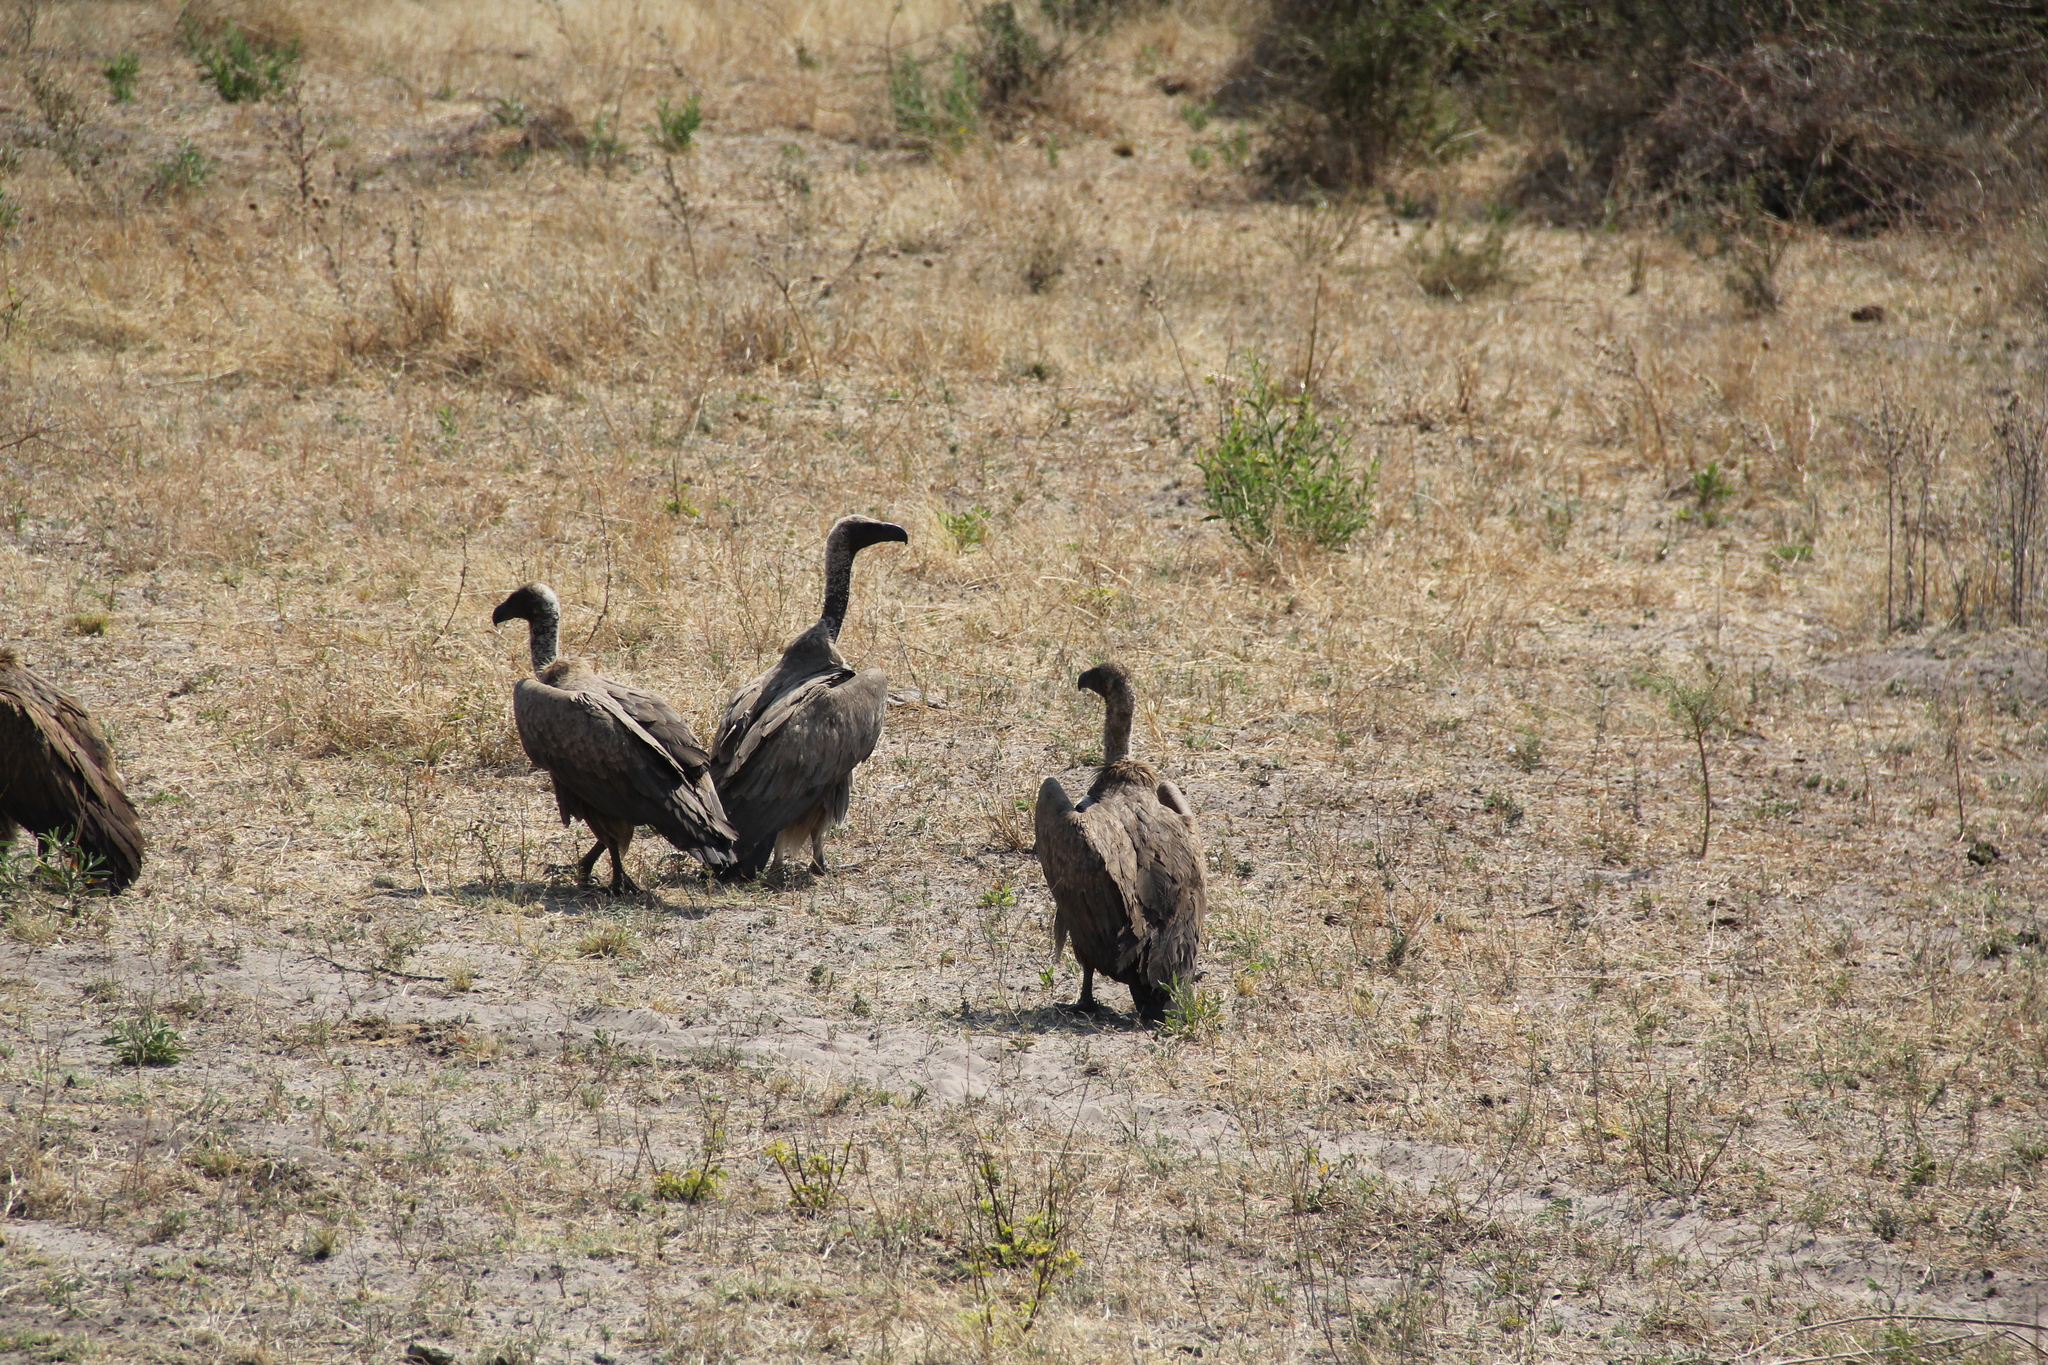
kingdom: Animalia
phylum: Chordata
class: Aves
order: Accipitriformes
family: Accipitridae
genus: Gyps
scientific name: Gyps africanus
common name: White-backed vulture
